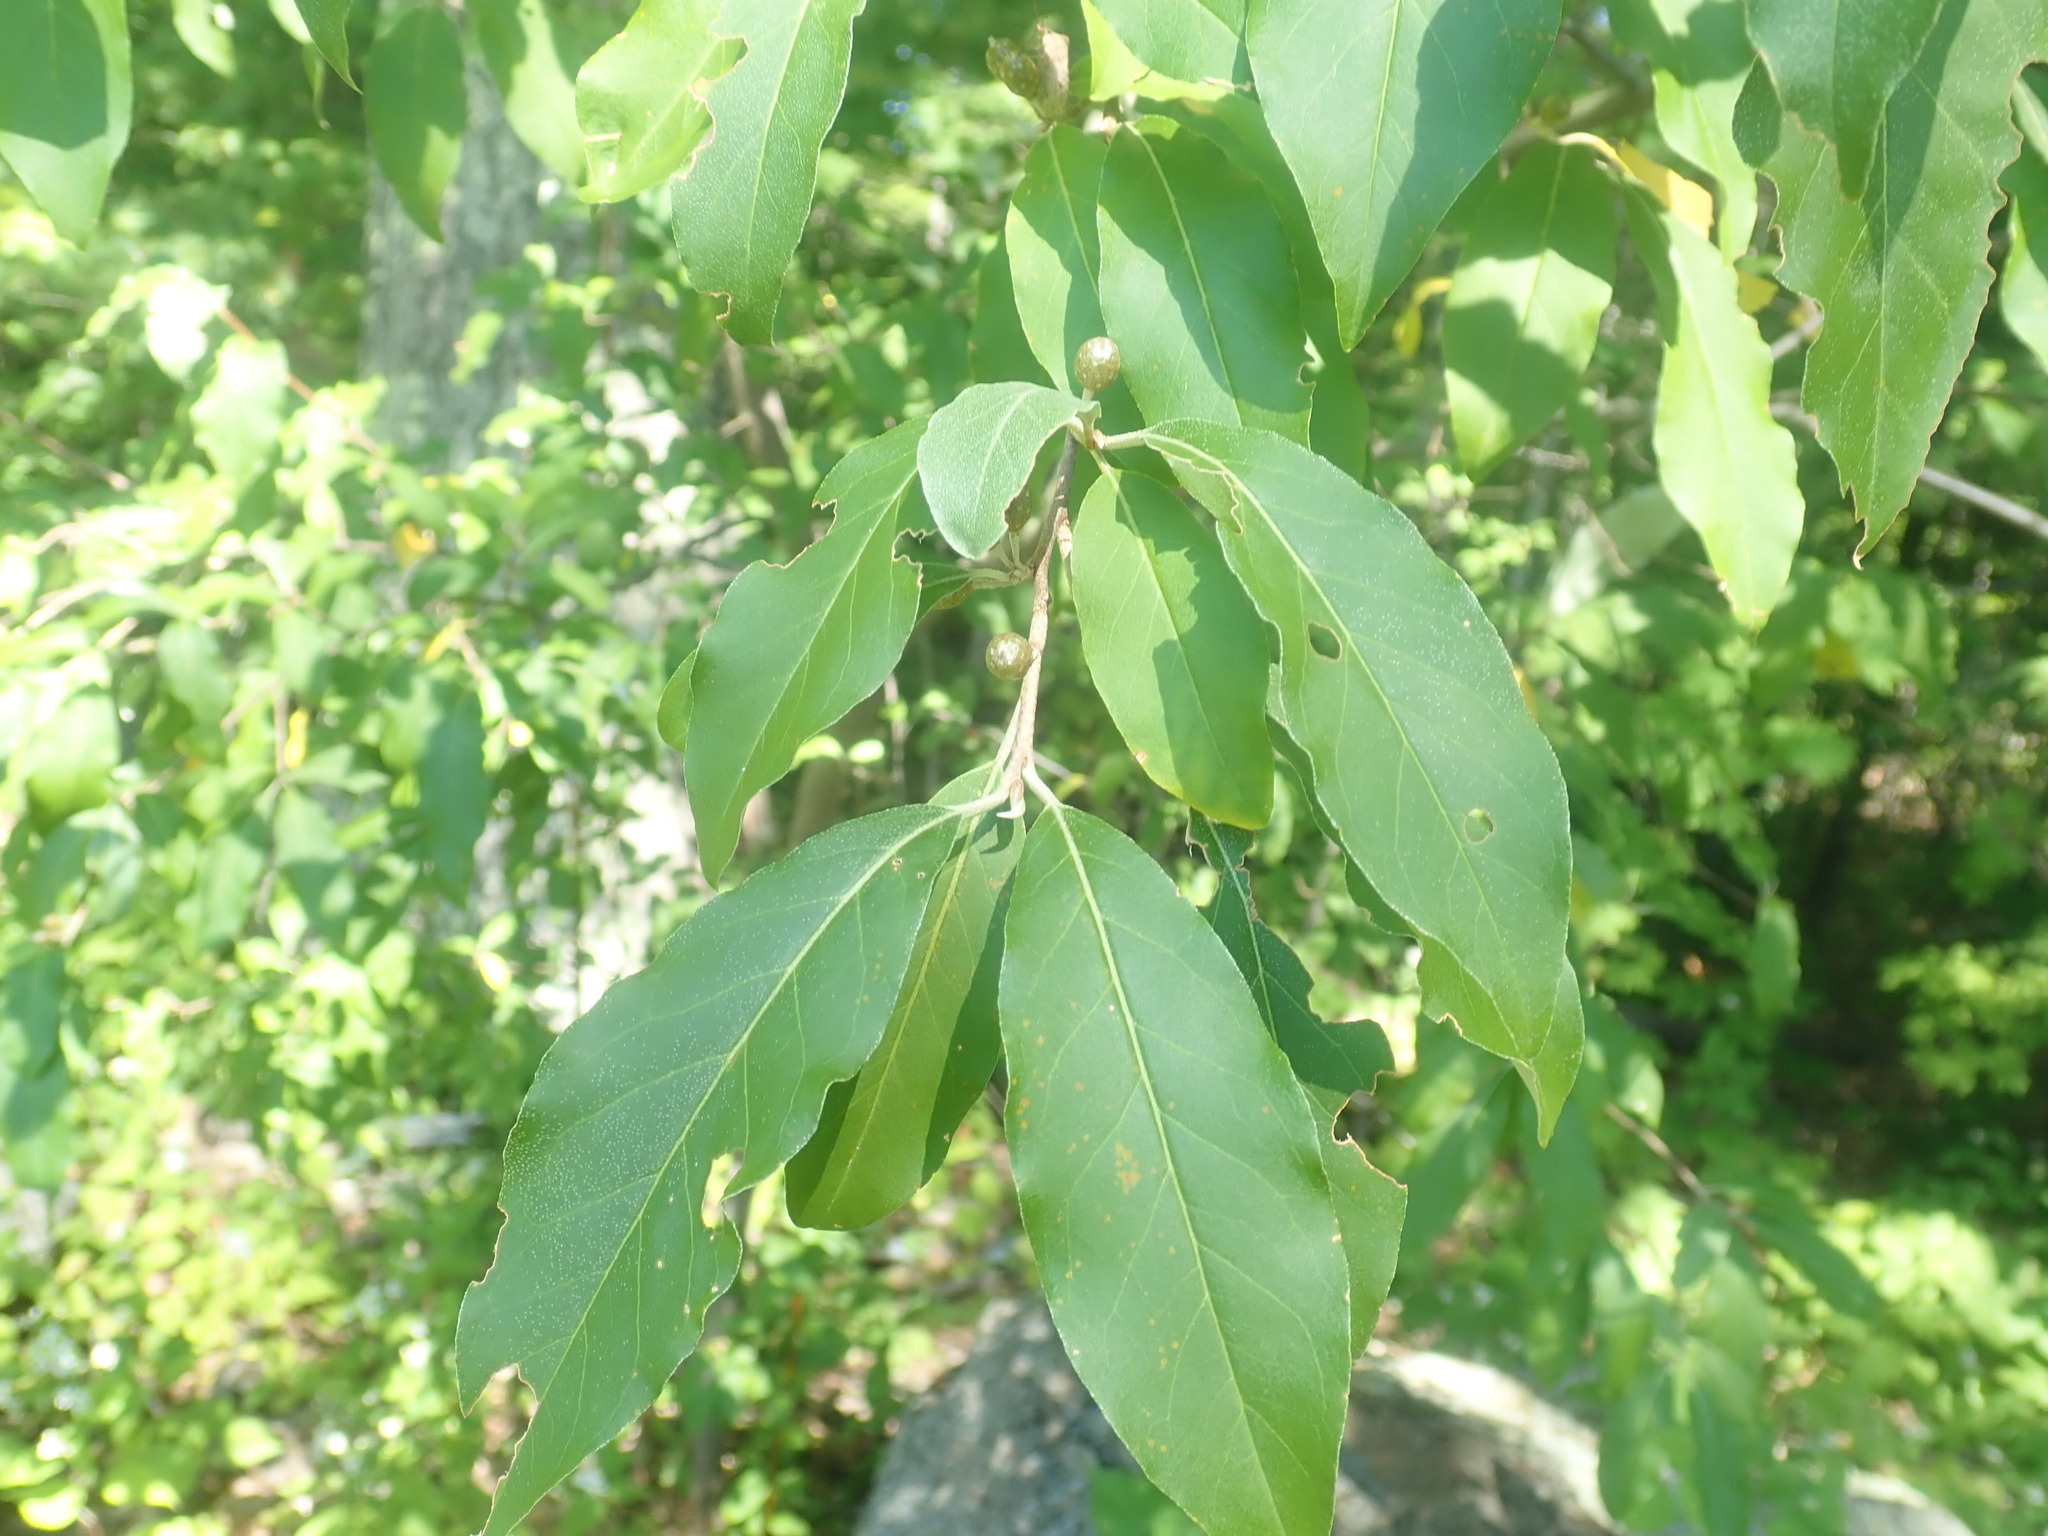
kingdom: Plantae
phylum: Tracheophyta
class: Magnoliopsida
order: Rosales
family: Elaeagnaceae
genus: Elaeagnus
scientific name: Elaeagnus umbellata
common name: Autumn olive
